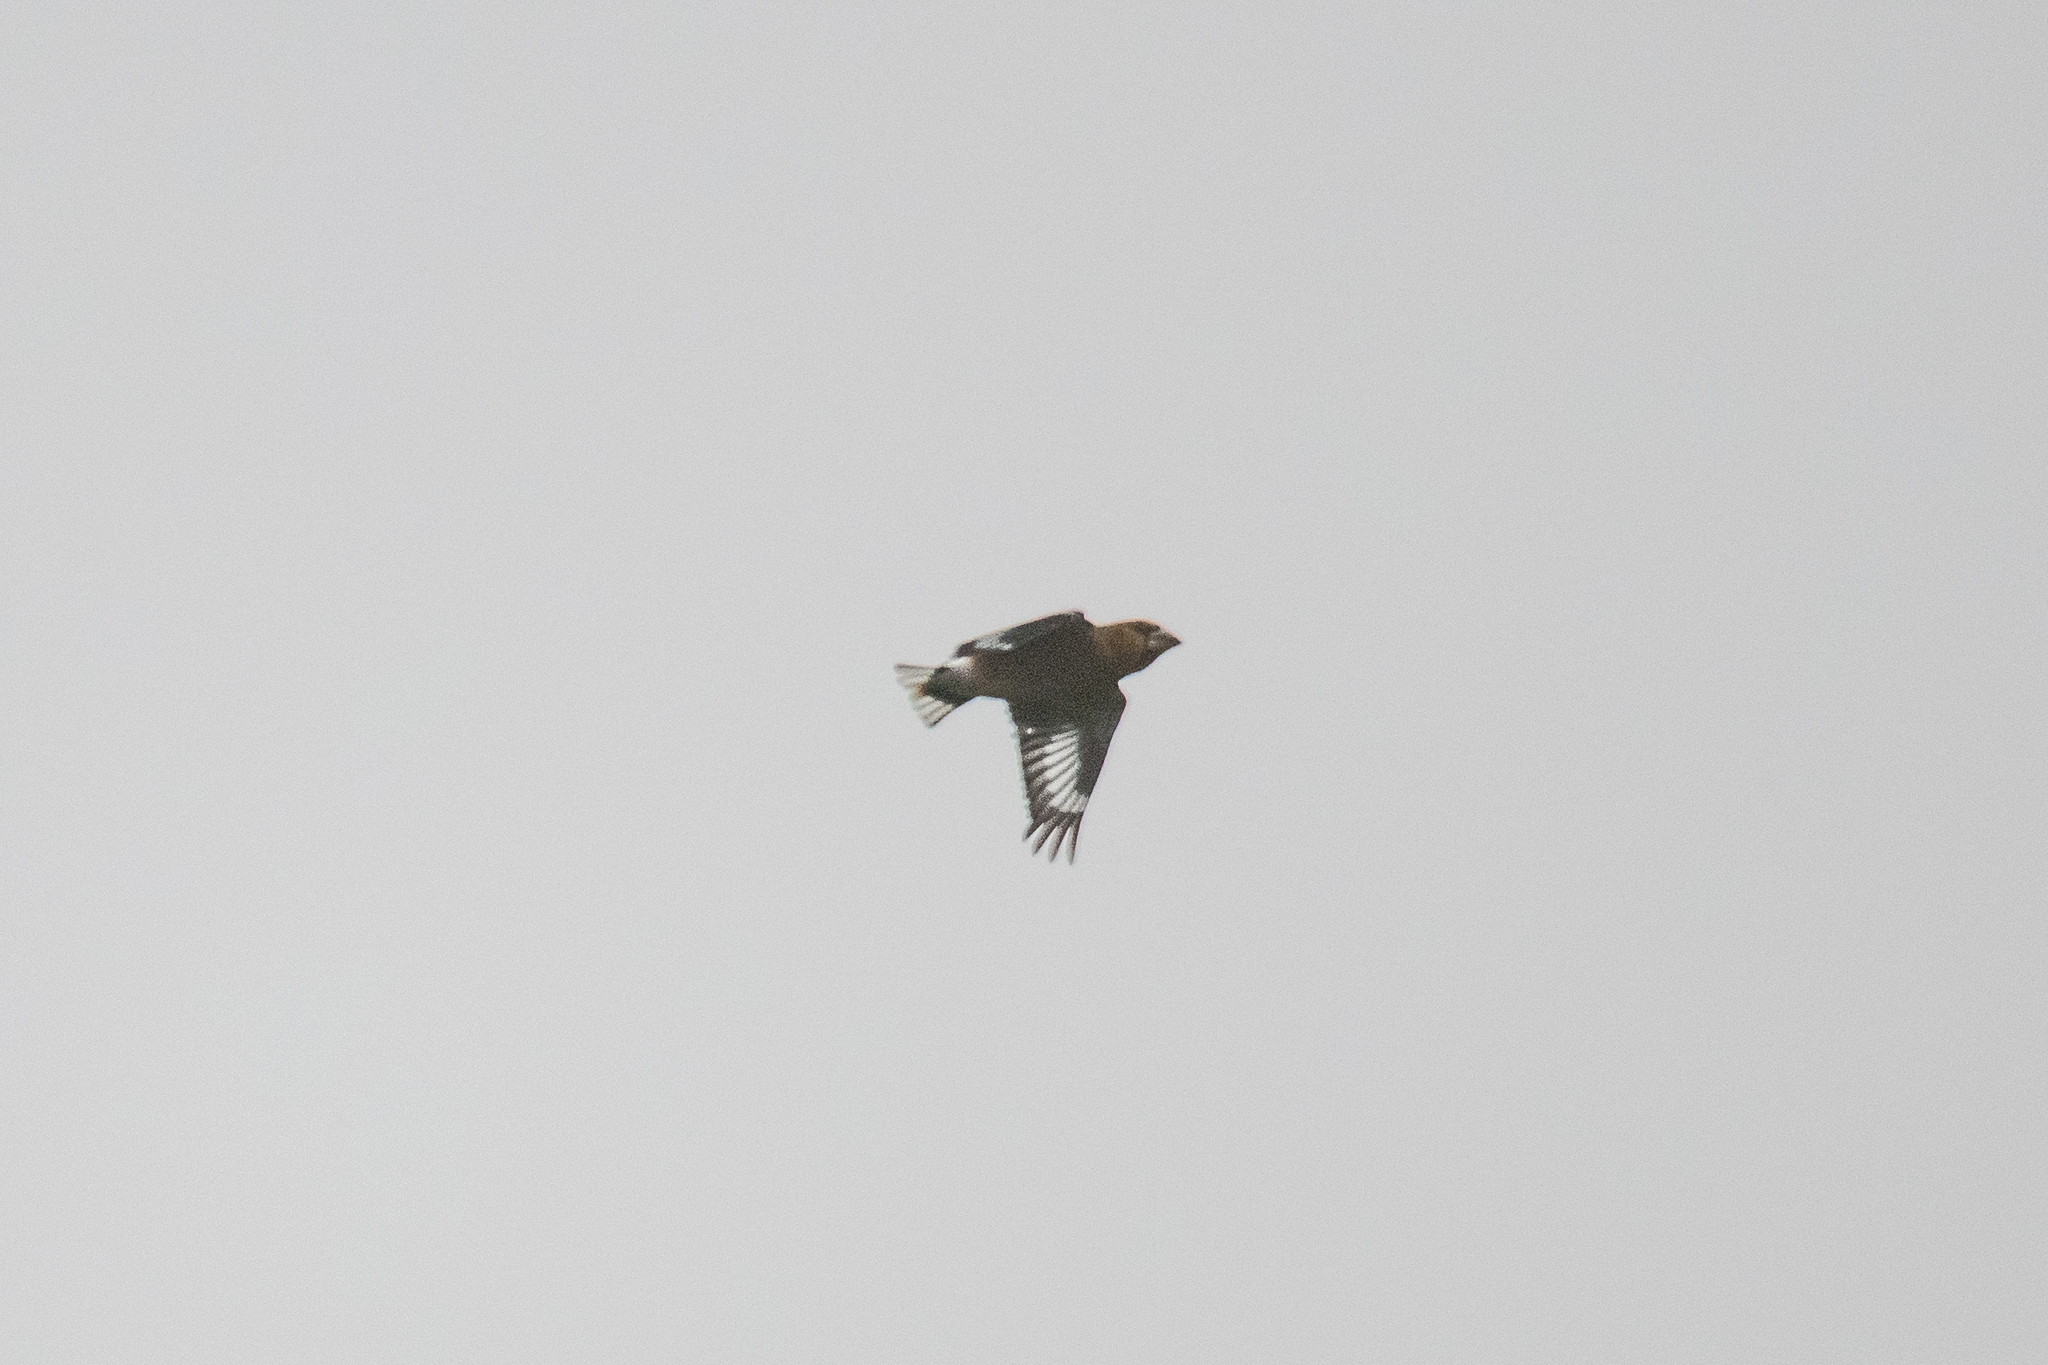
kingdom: Animalia
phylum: Chordata
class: Aves
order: Passeriformes
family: Fringillidae
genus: Coccothraustes
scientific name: Coccothraustes coccothraustes
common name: Hawfinch
